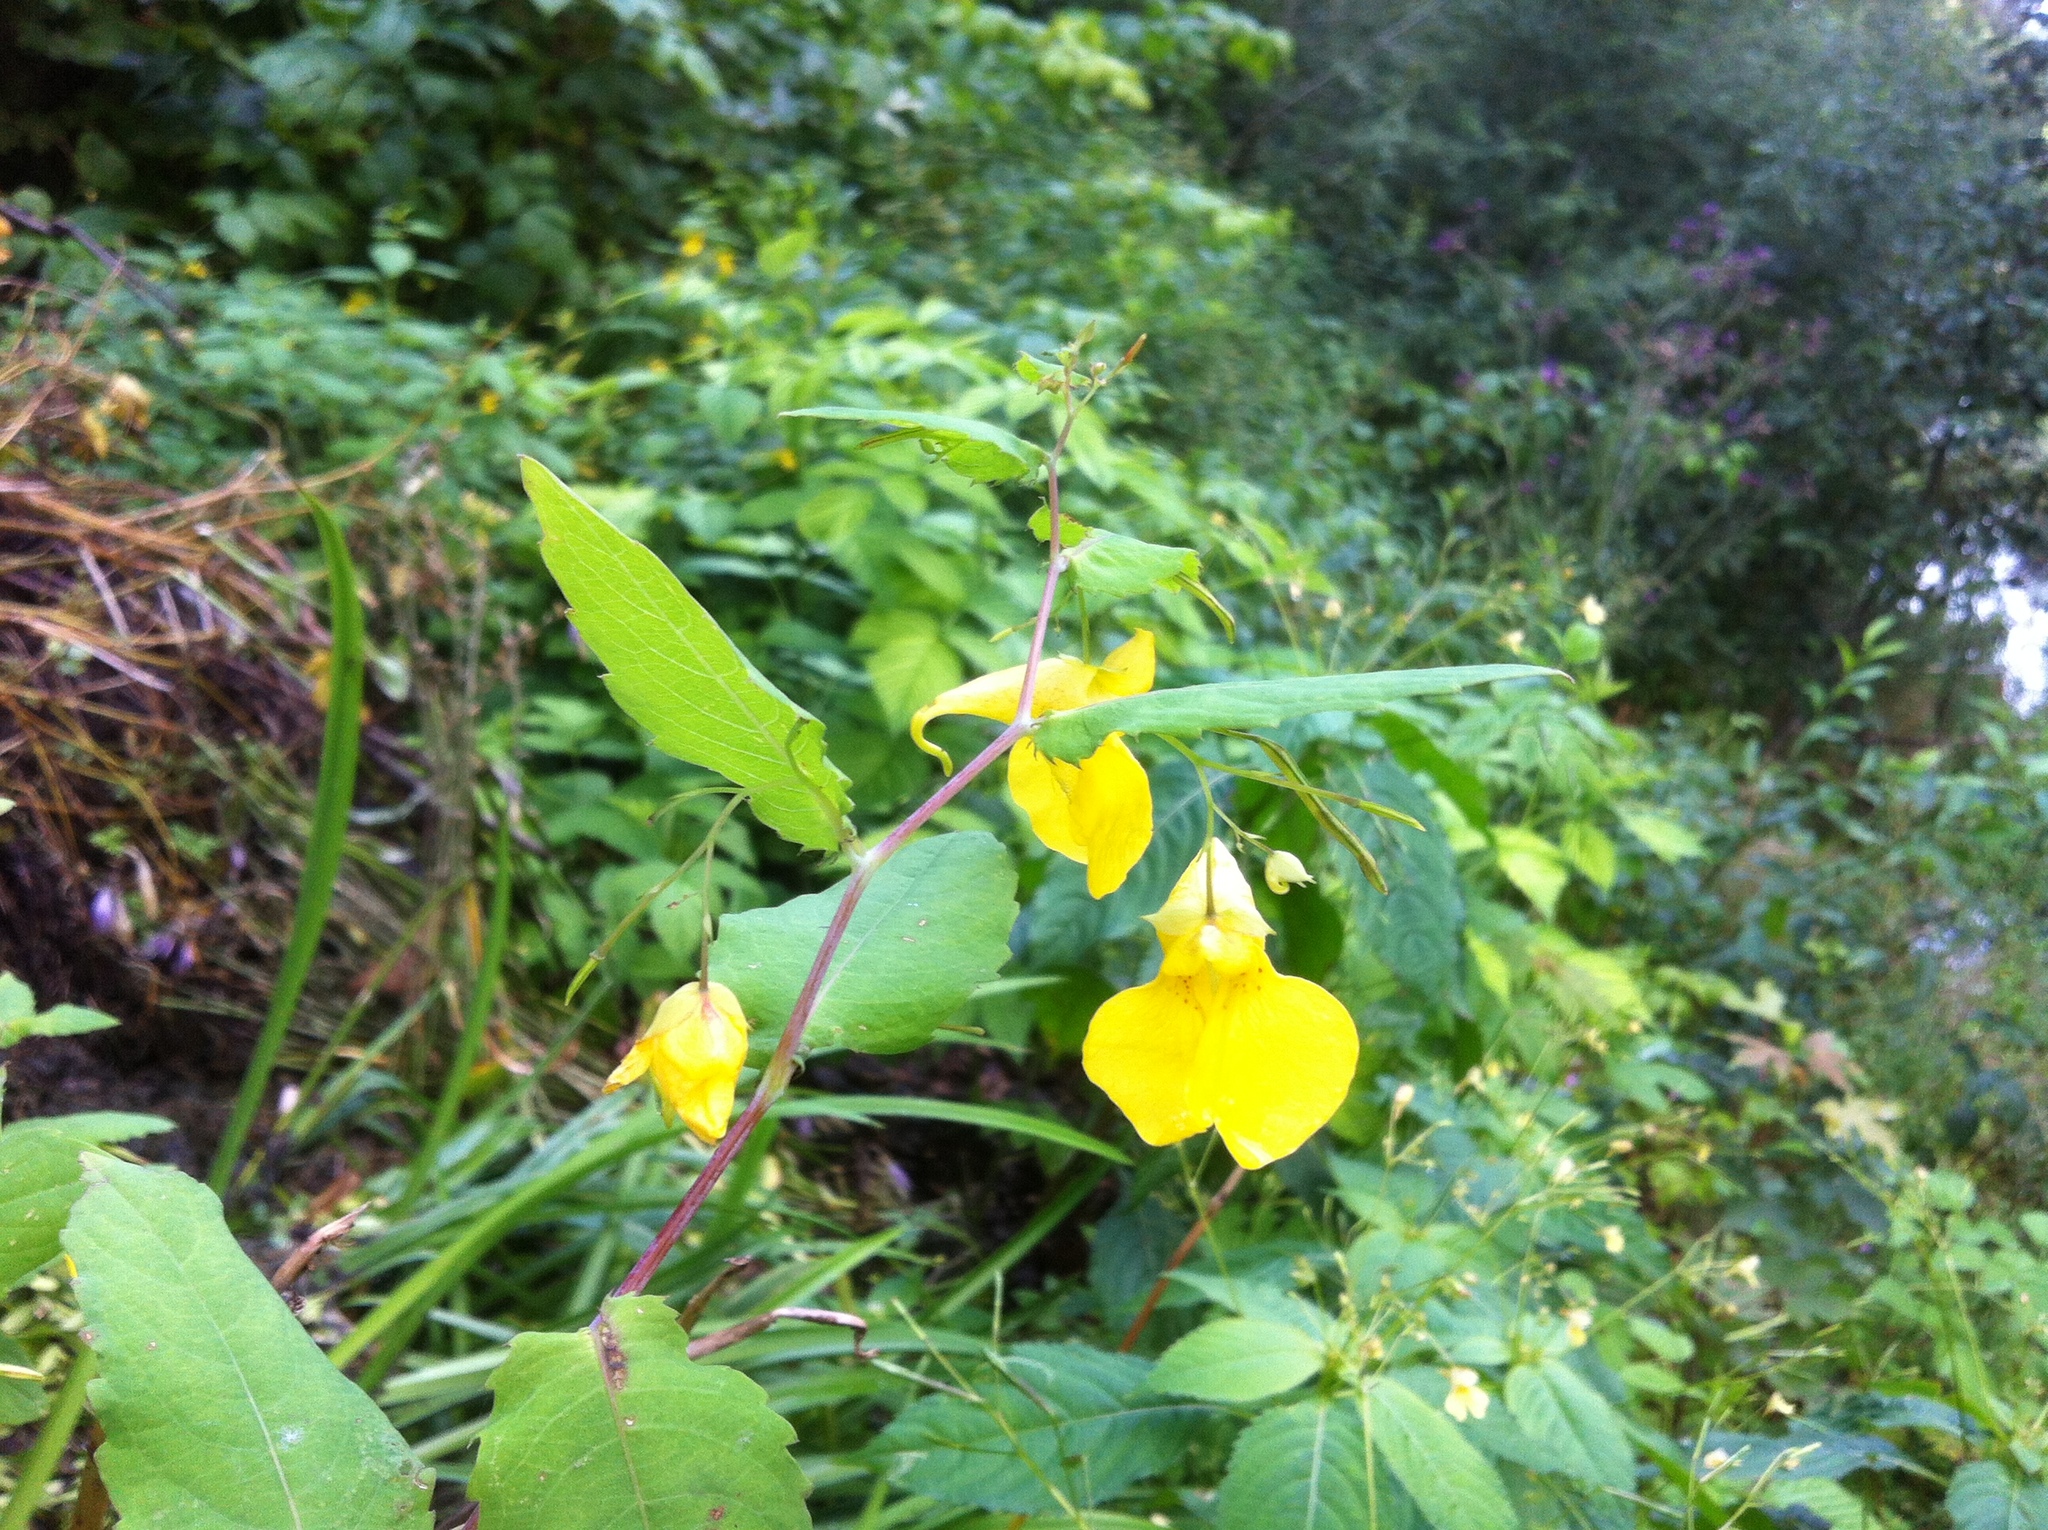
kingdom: Plantae
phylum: Tracheophyta
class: Magnoliopsida
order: Ericales
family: Balsaminaceae
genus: Impatiens
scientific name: Impatiens noli-tangere
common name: Touch-me-not balsam
